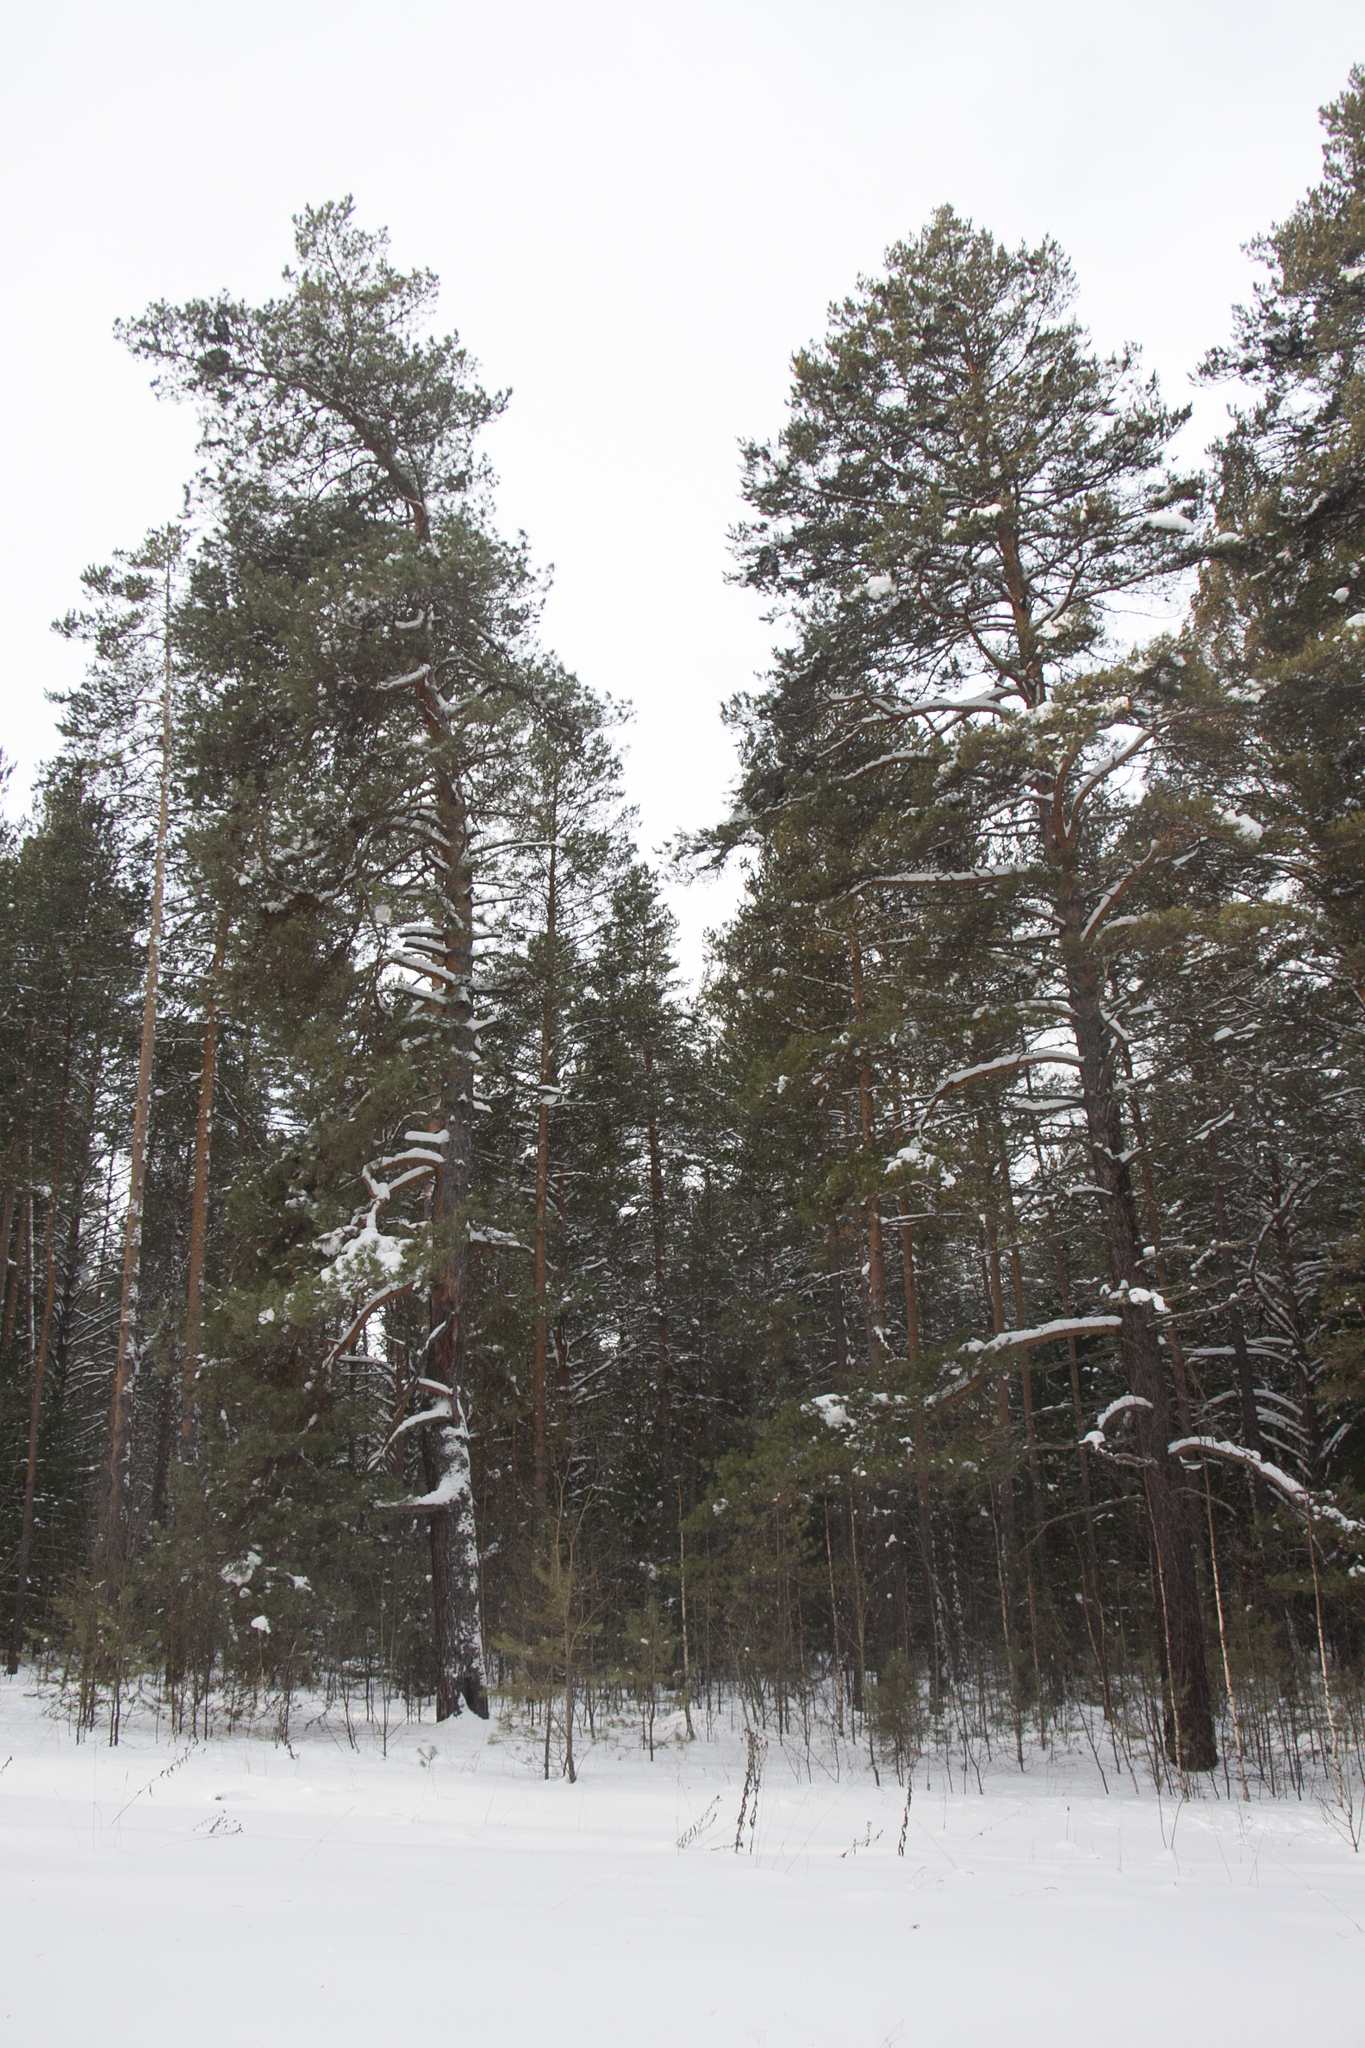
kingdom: Plantae
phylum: Tracheophyta
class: Pinopsida
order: Pinales
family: Pinaceae
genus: Pinus
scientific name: Pinus sylvestris
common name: Scots pine
